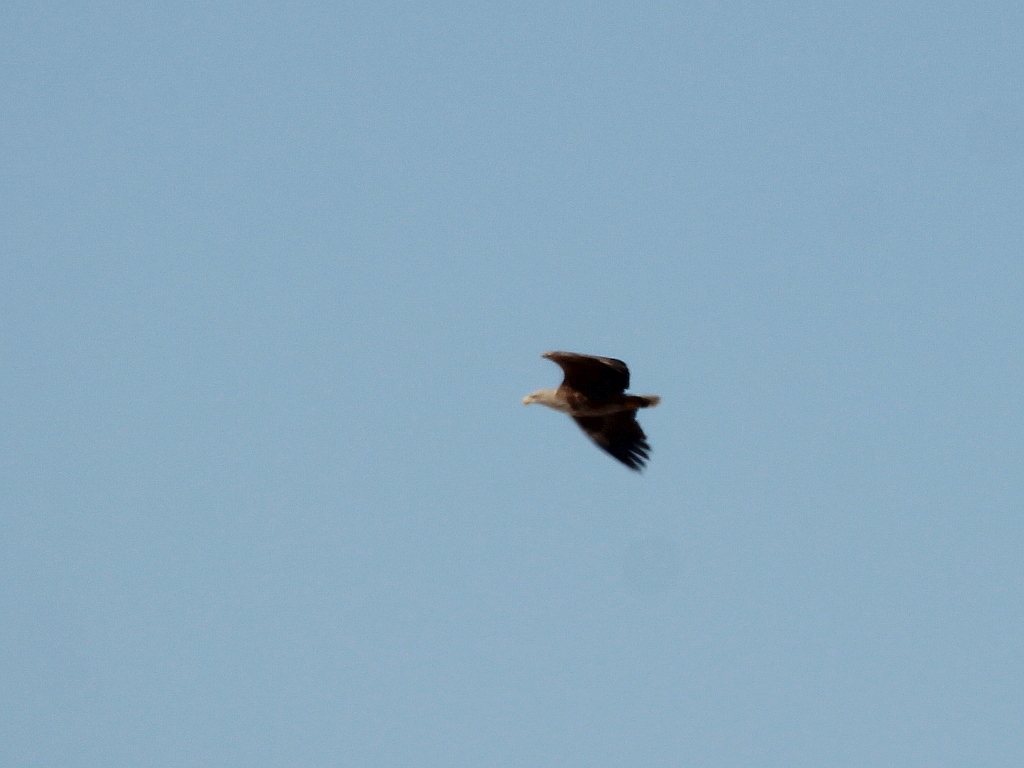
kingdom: Animalia
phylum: Chordata
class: Aves
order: Accipitriformes
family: Accipitridae
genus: Haliaeetus
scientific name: Haliaeetus albicilla
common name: White-tailed eagle
